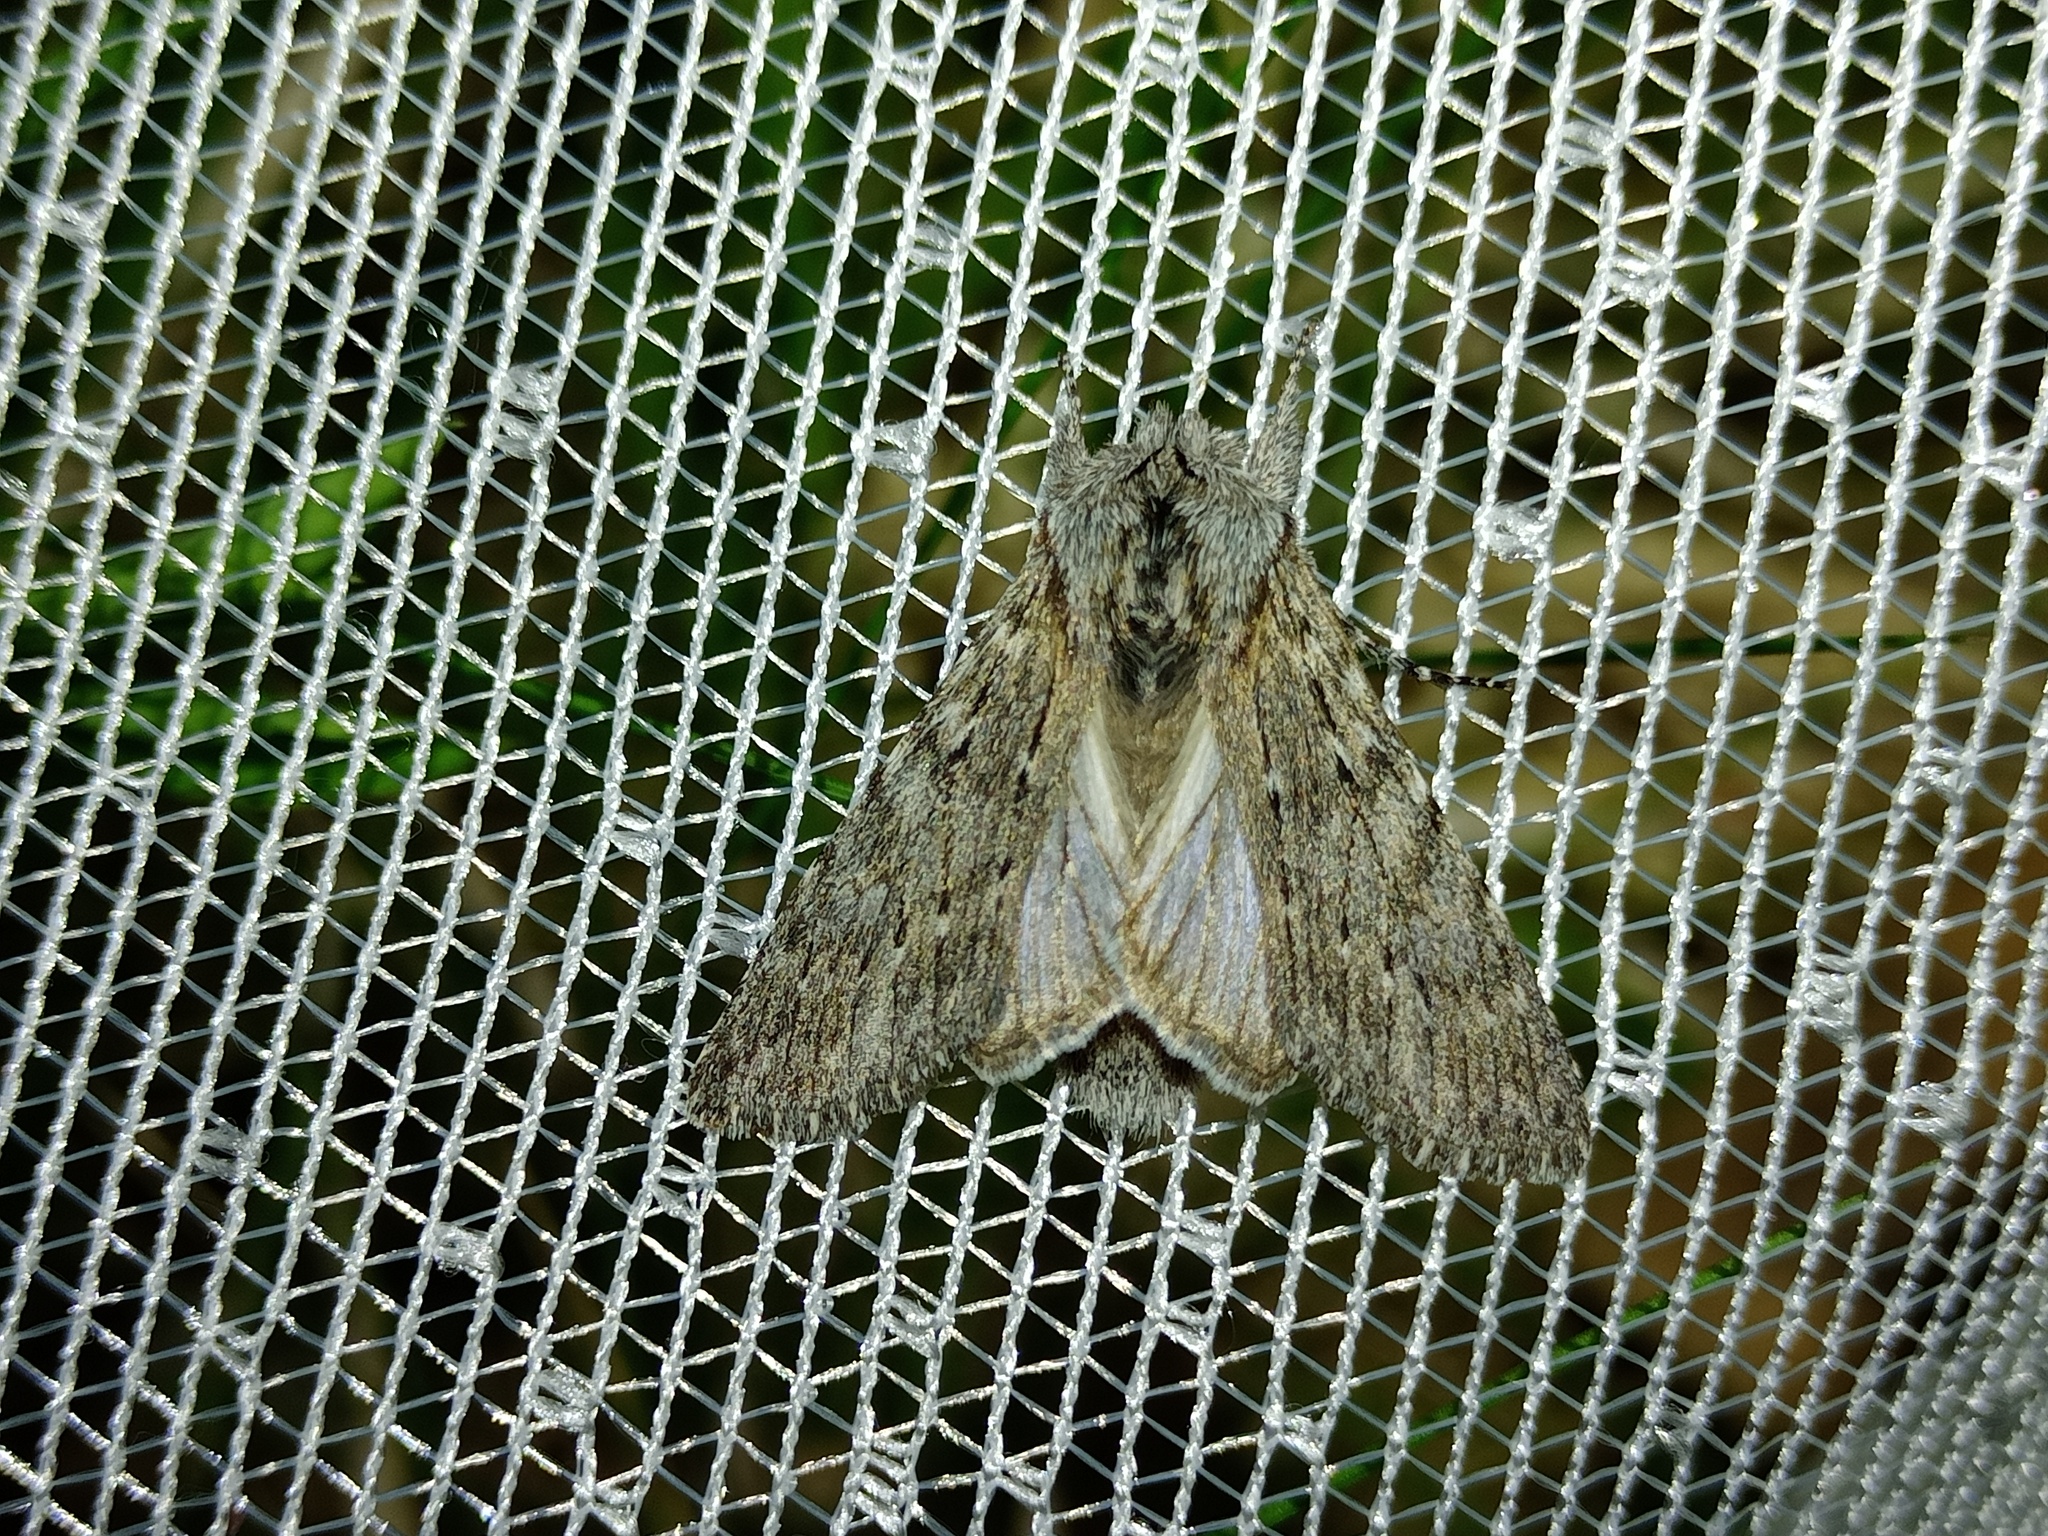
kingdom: Animalia
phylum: Arthropoda
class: Insecta
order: Lepidoptera
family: Notodontidae
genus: Dicranura
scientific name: Dicranura ulmi
